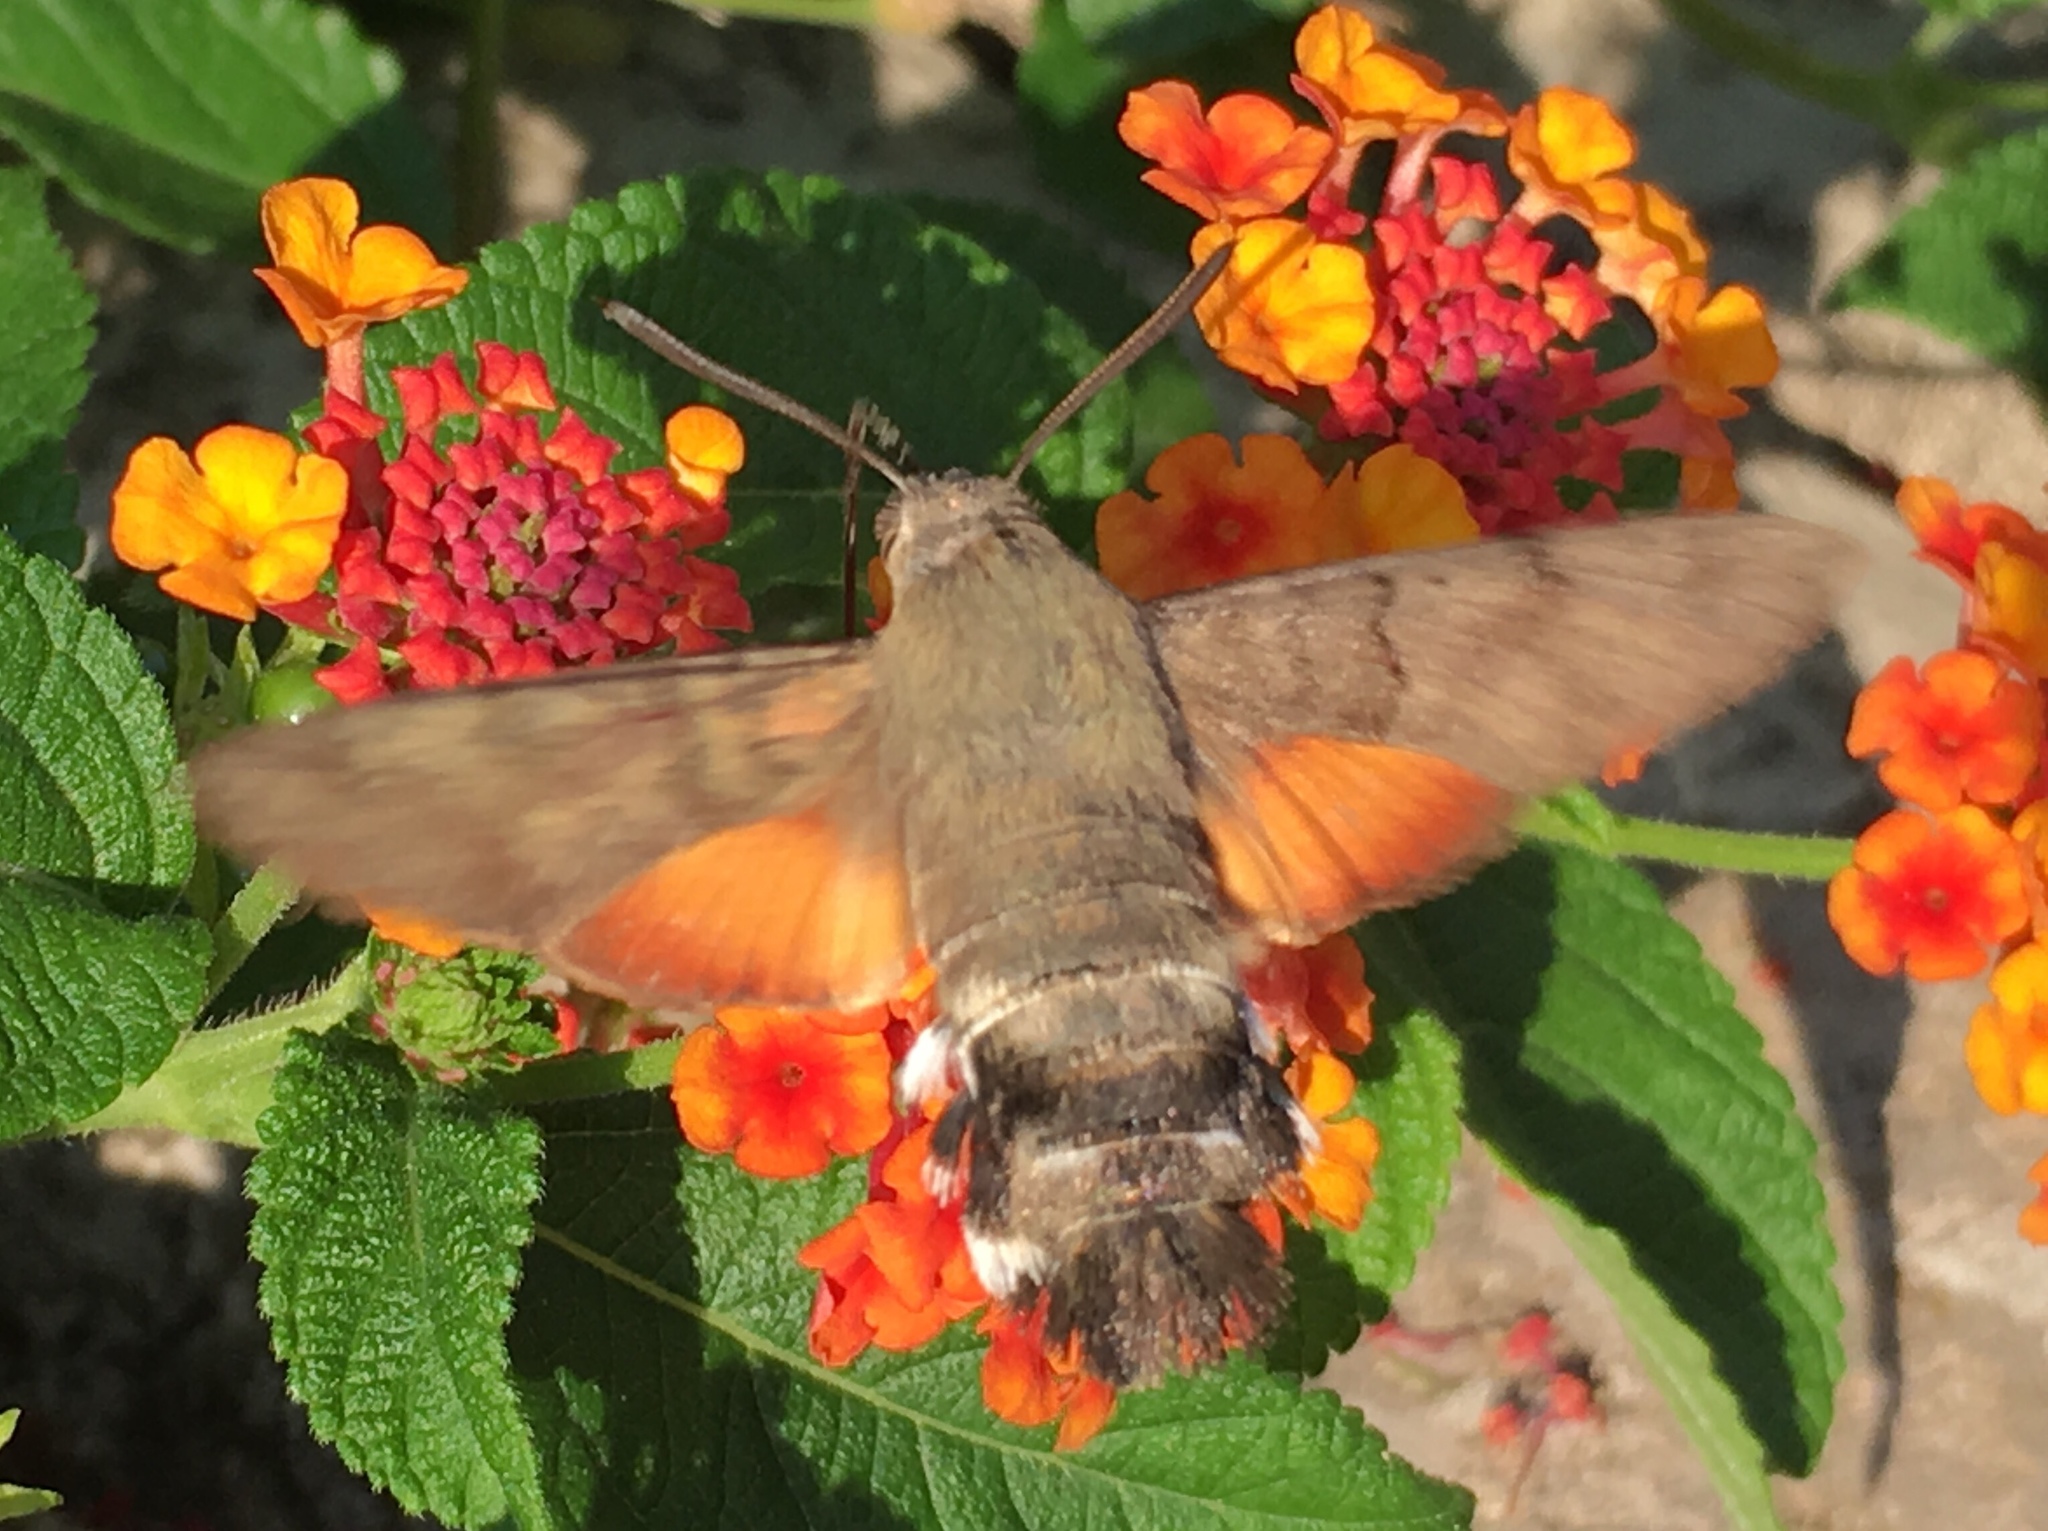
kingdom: Animalia
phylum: Arthropoda
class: Insecta
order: Lepidoptera
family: Sphingidae
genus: Macroglossum
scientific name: Macroglossum stellatarum
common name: Humming-bird hawk-moth
